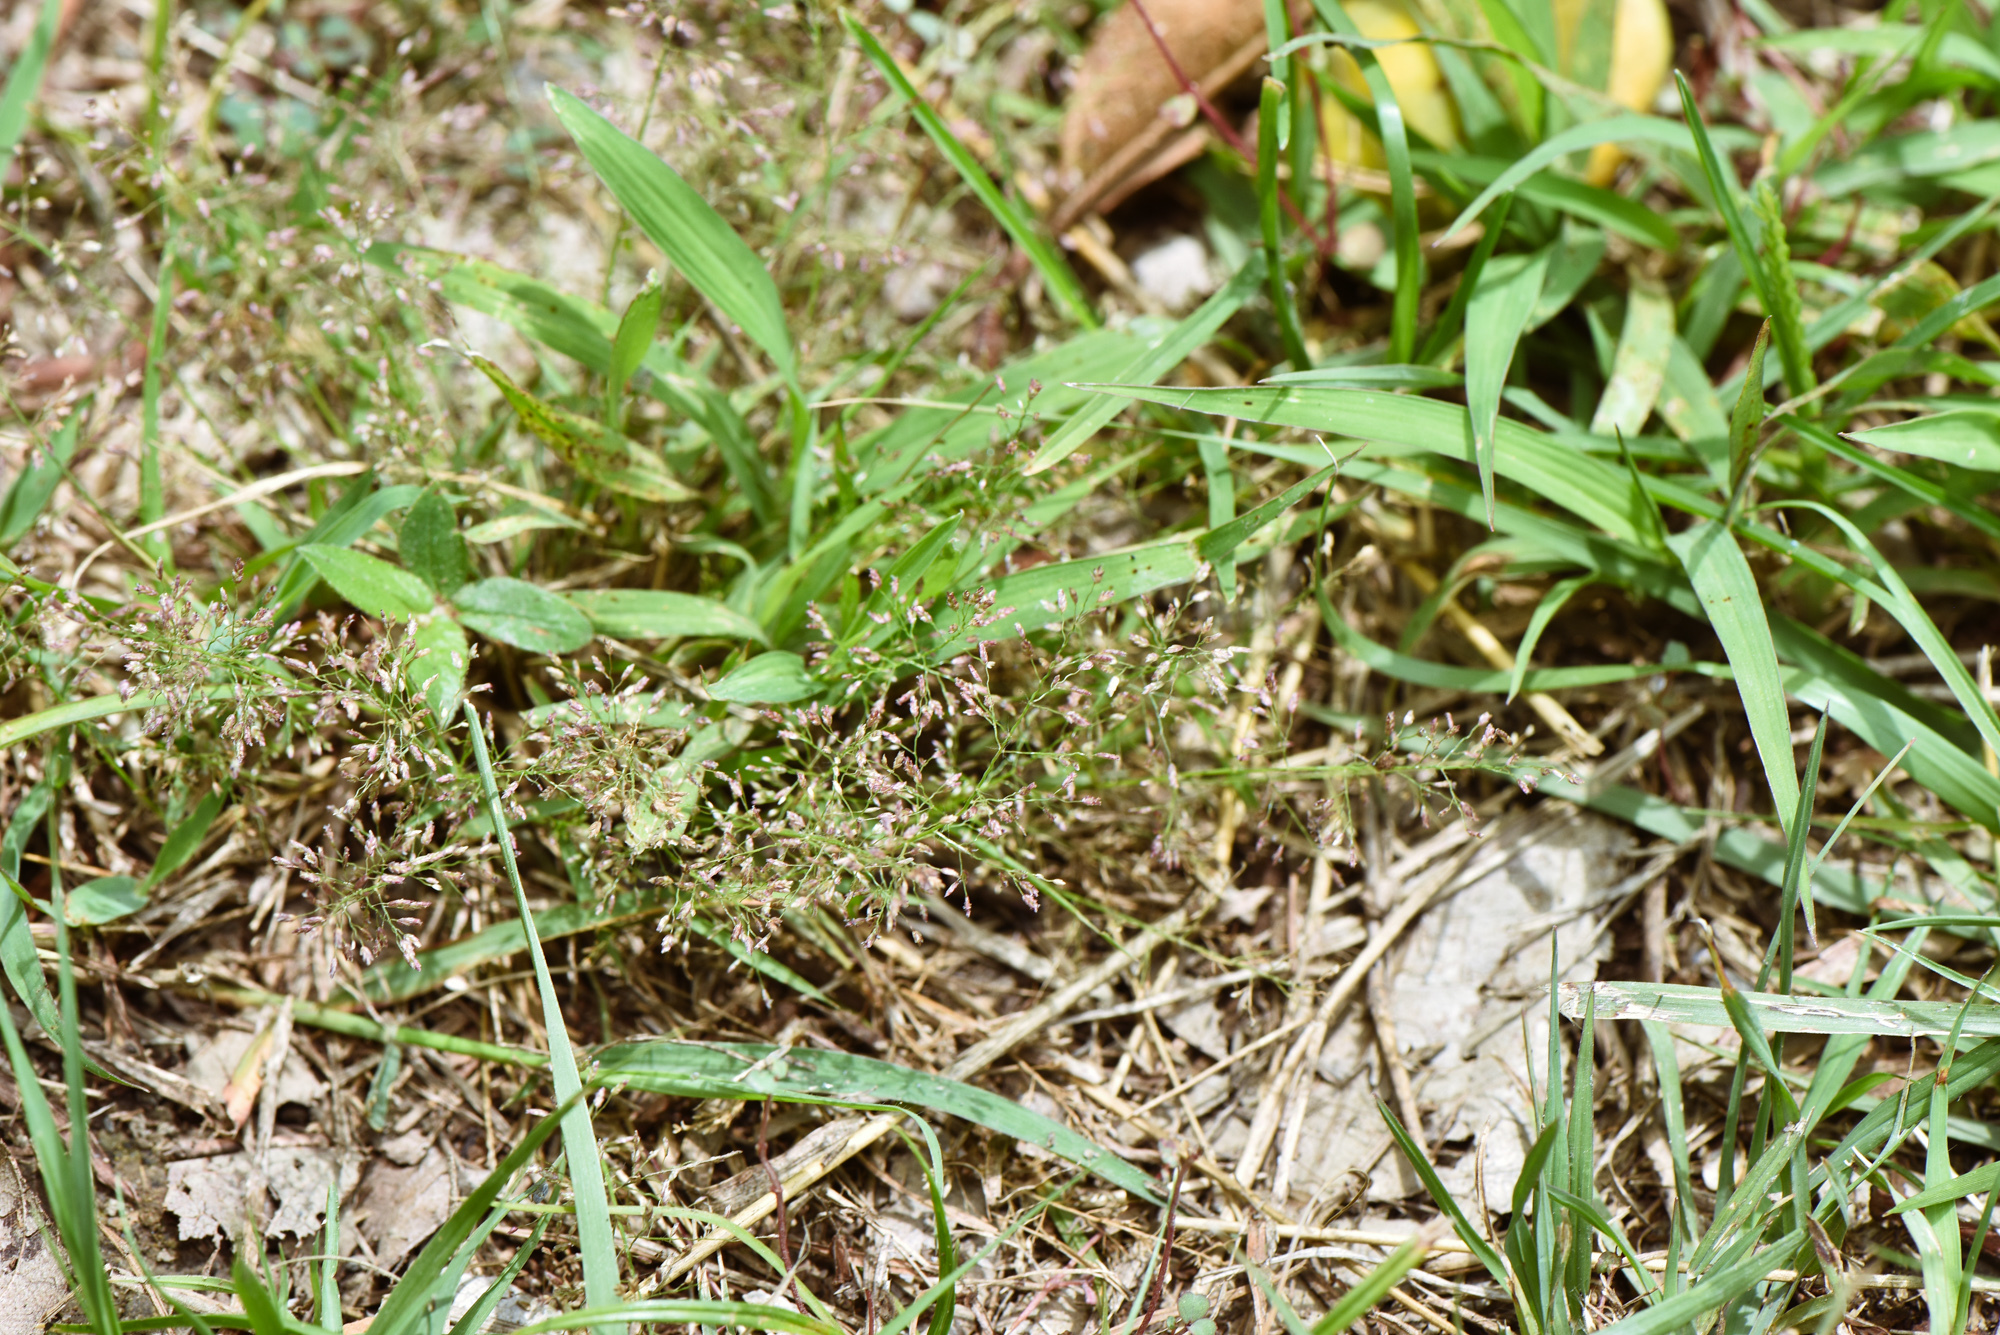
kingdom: Plantae
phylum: Tracheophyta
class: Liliopsida
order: Poales
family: Poaceae
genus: Eragrostis
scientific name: Eragrostis tenella
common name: Japanese lovegrass
